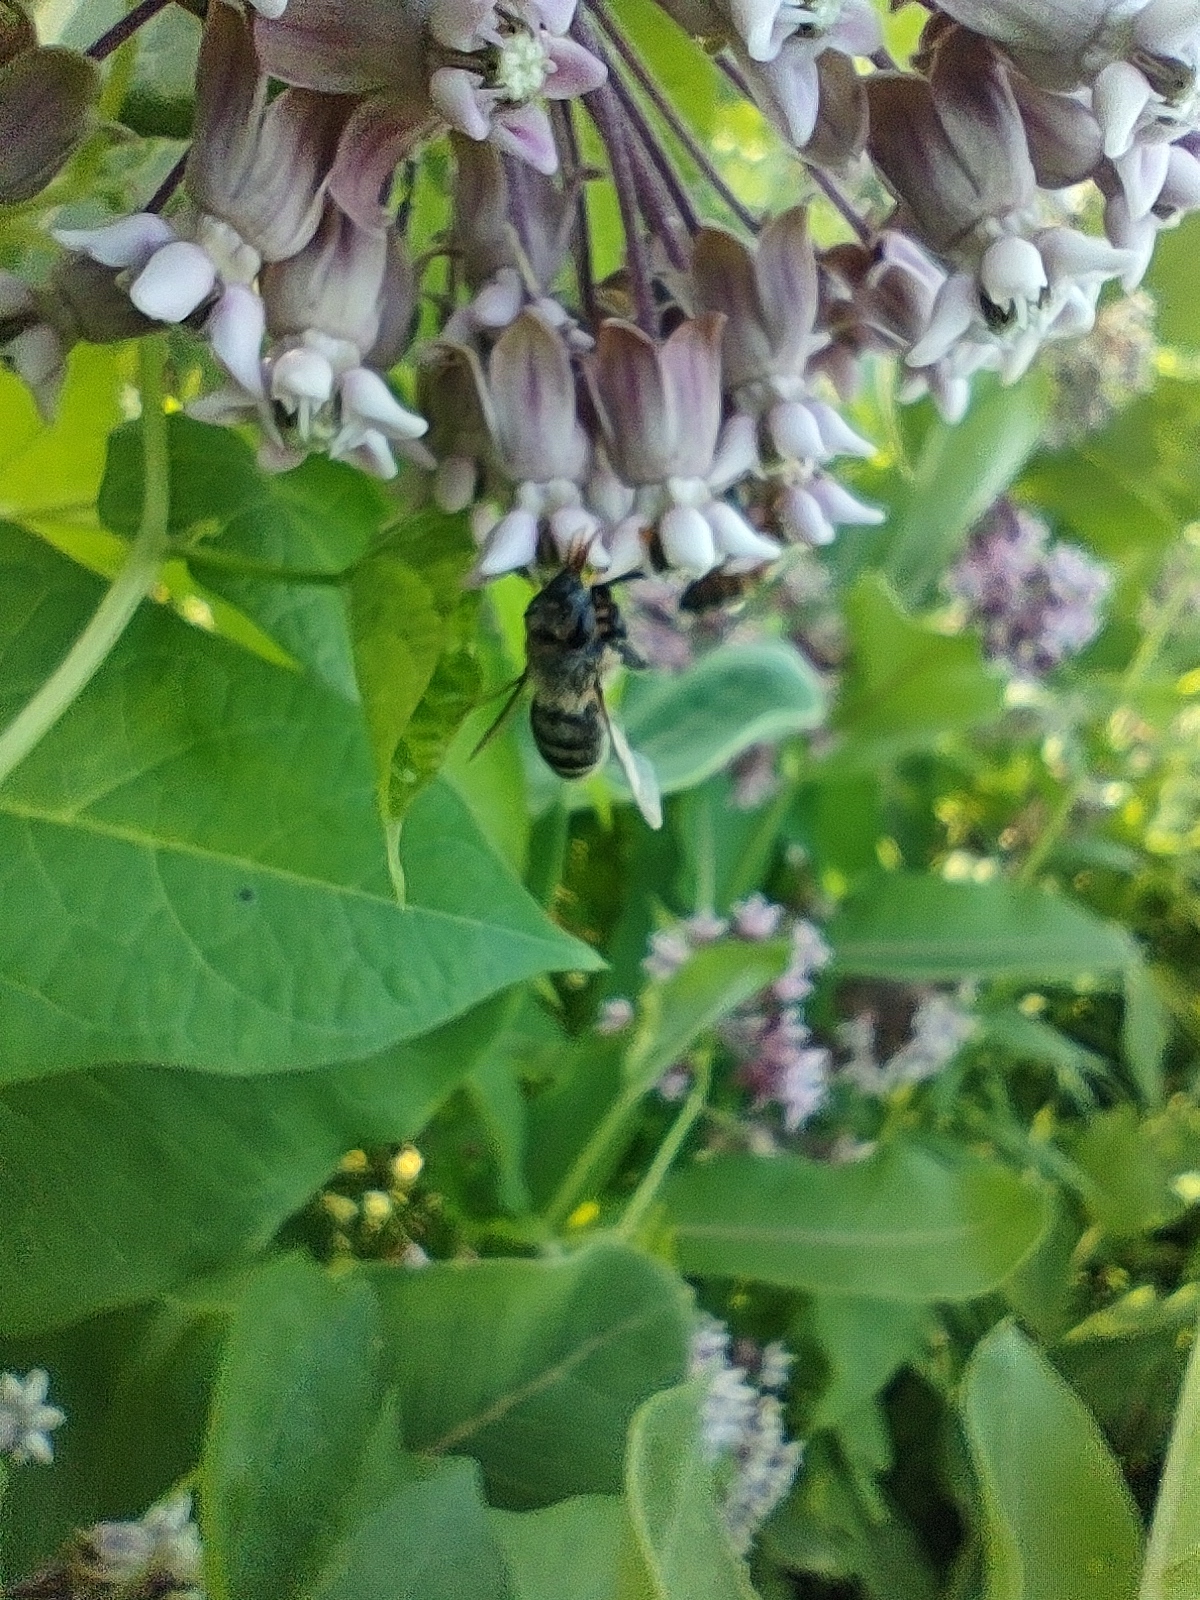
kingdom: Animalia
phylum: Arthropoda
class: Insecta
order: Hymenoptera
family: Apidae
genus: Apis
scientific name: Apis mellifera
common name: Honey bee
